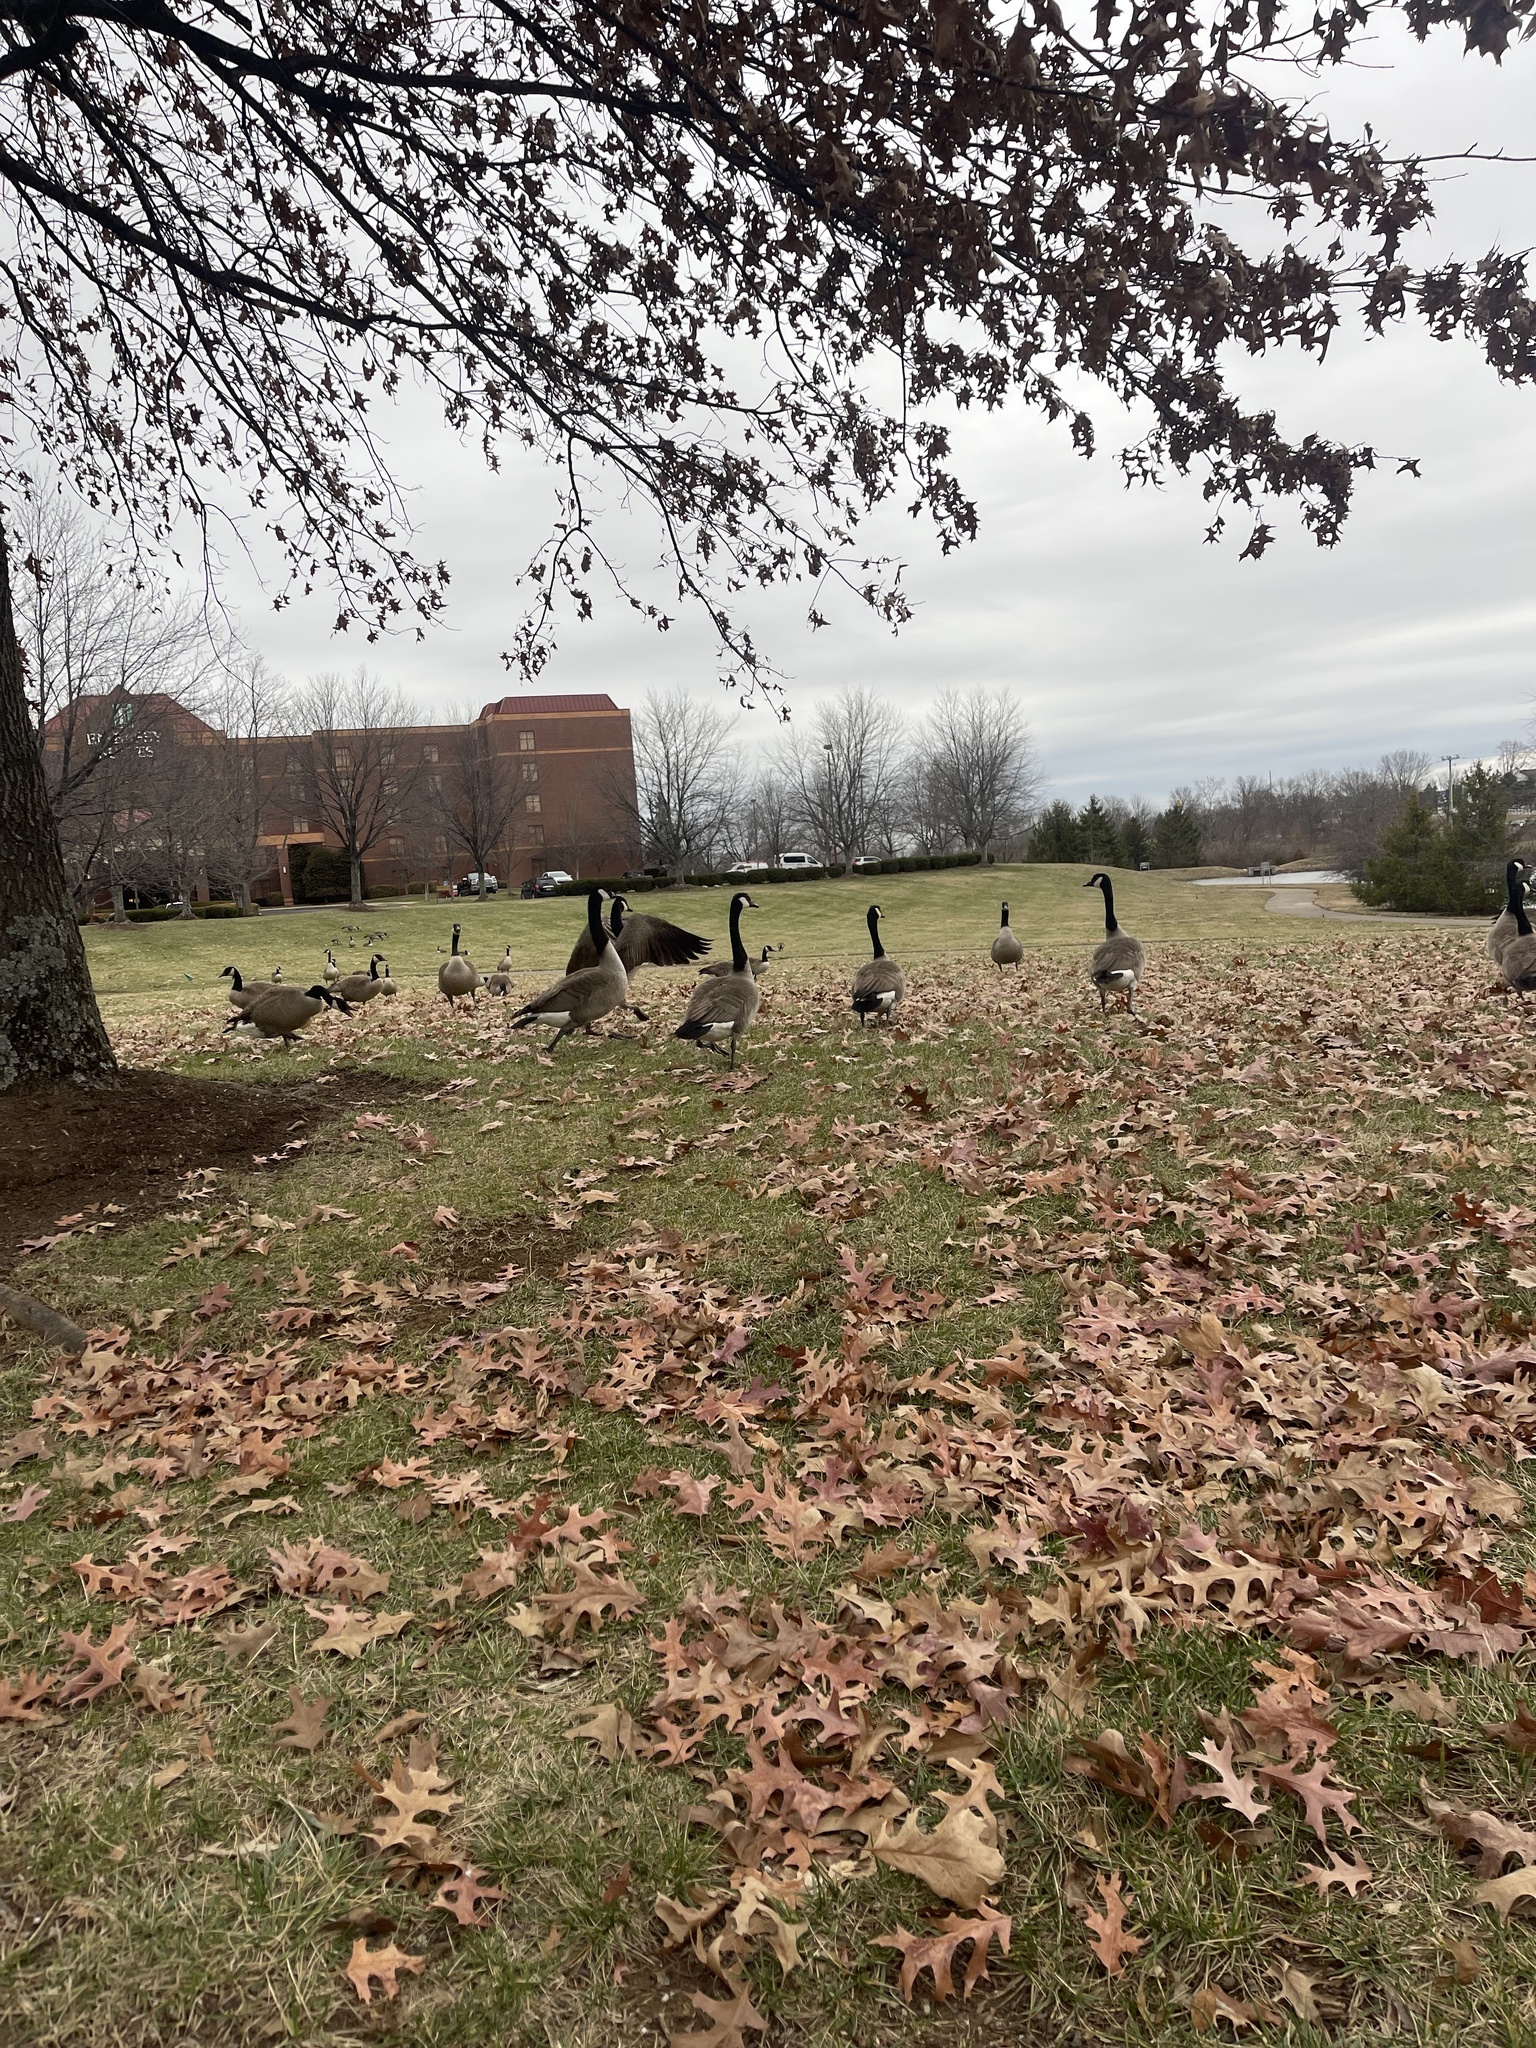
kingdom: Animalia
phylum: Chordata
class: Aves
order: Anseriformes
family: Anatidae
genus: Branta
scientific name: Branta canadensis
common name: Canada goose
